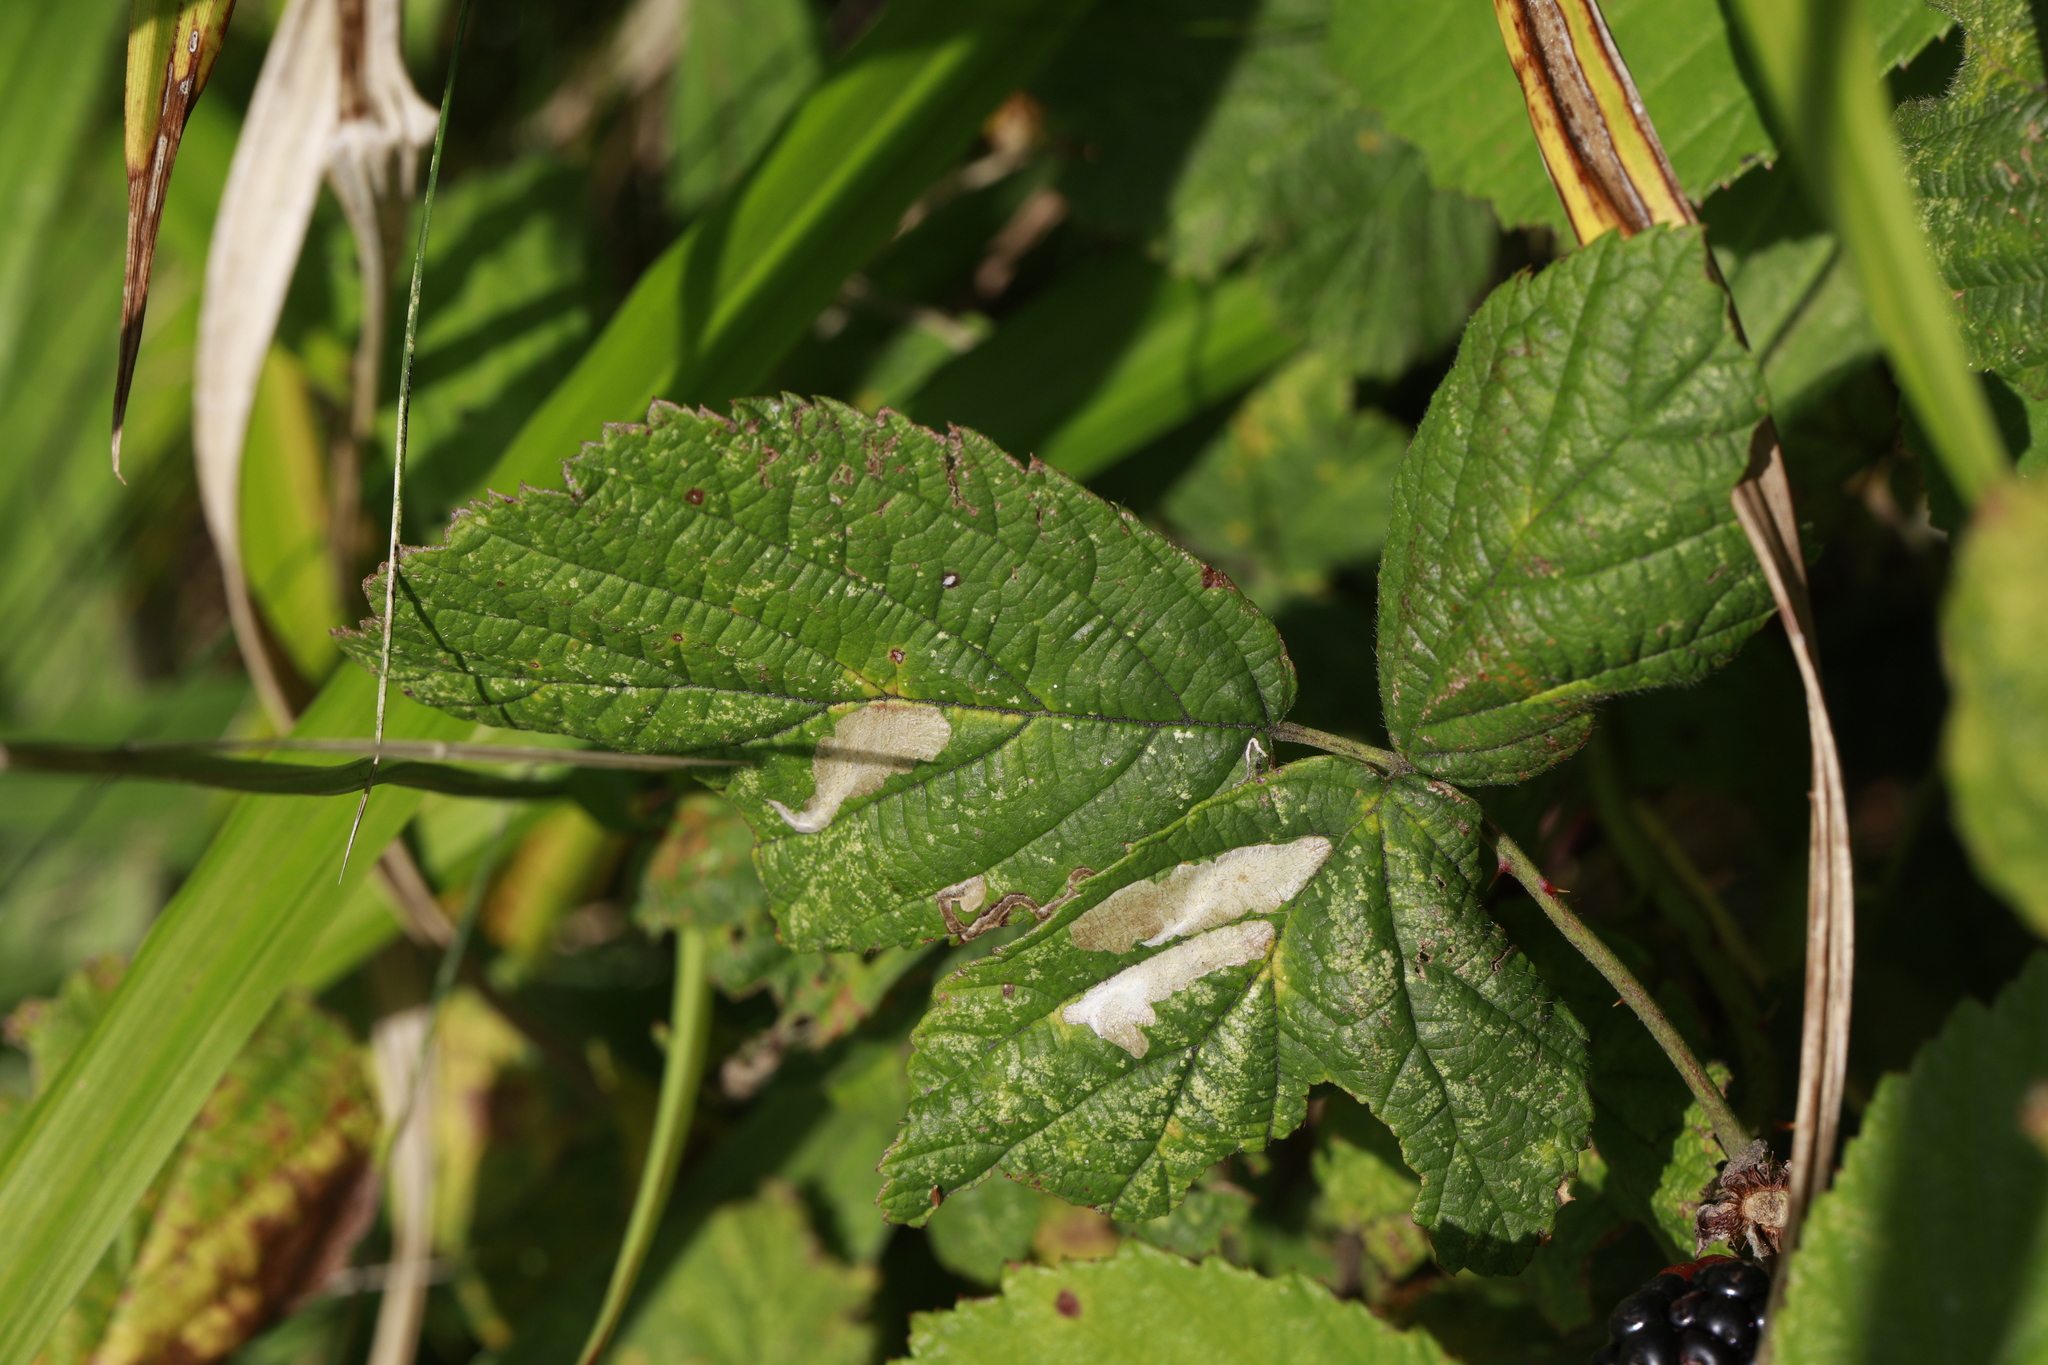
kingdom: Animalia
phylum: Arthropoda
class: Insecta
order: Lepidoptera
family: Tischeriidae
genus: Coptotriche
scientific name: Coptotriche marginea
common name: Bordered carl
